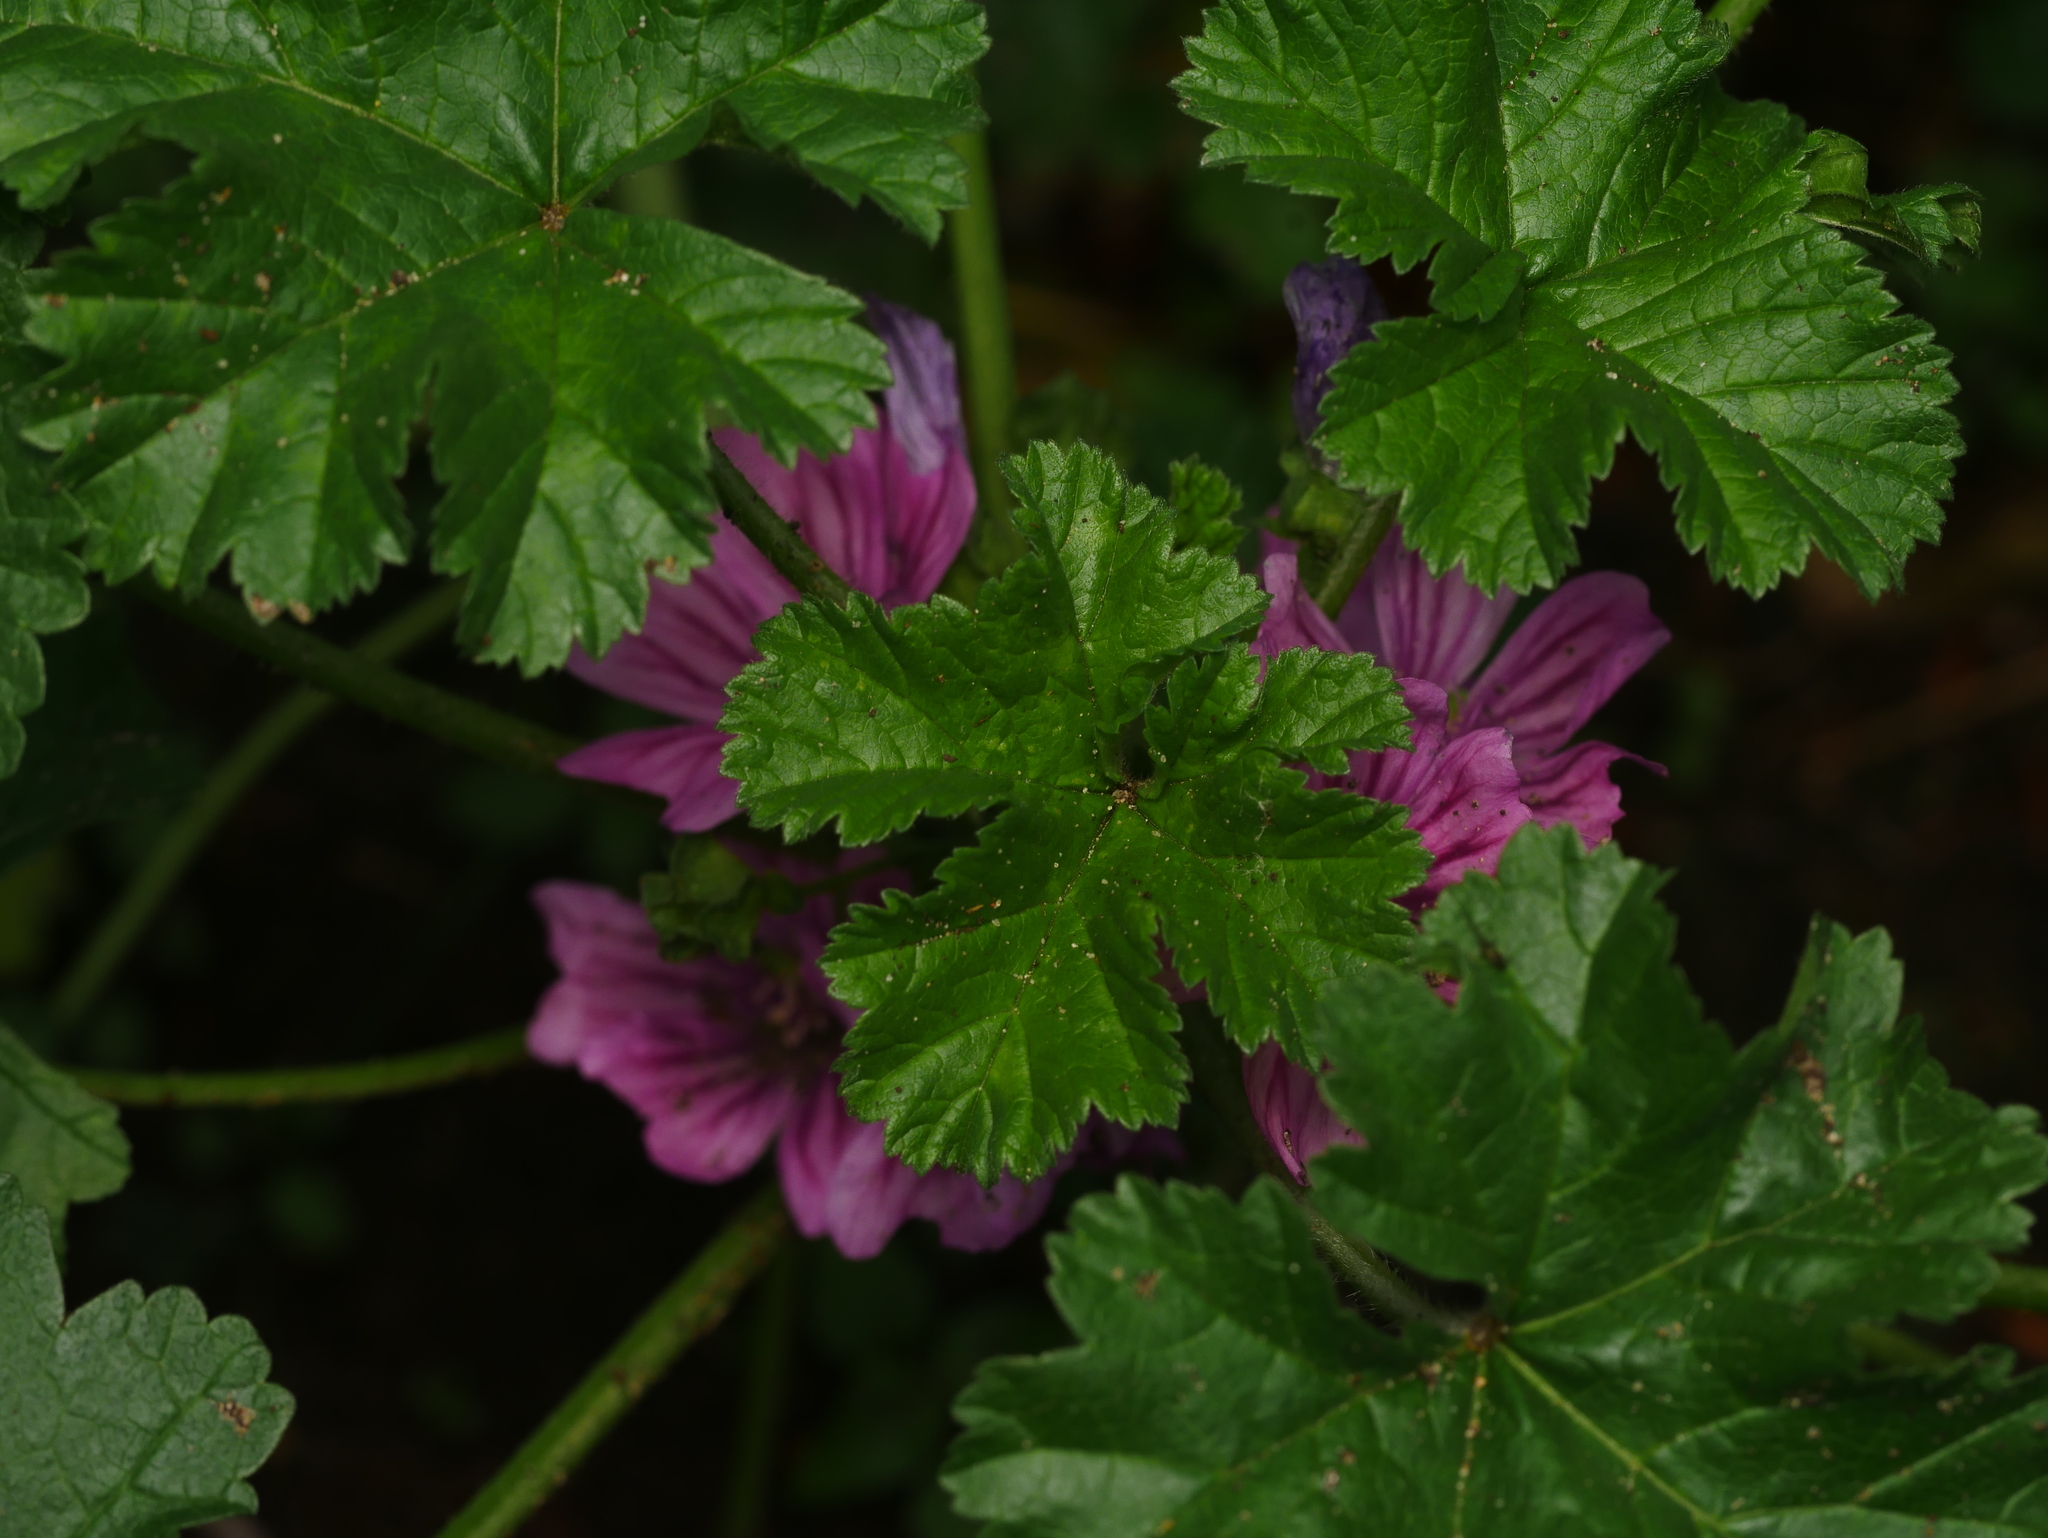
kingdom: Plantae
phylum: Tracheophyta
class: Magnoliopsida
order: Malvales
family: Malvaceae
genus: Malva
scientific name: Malva sylvestris
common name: Common mallow
